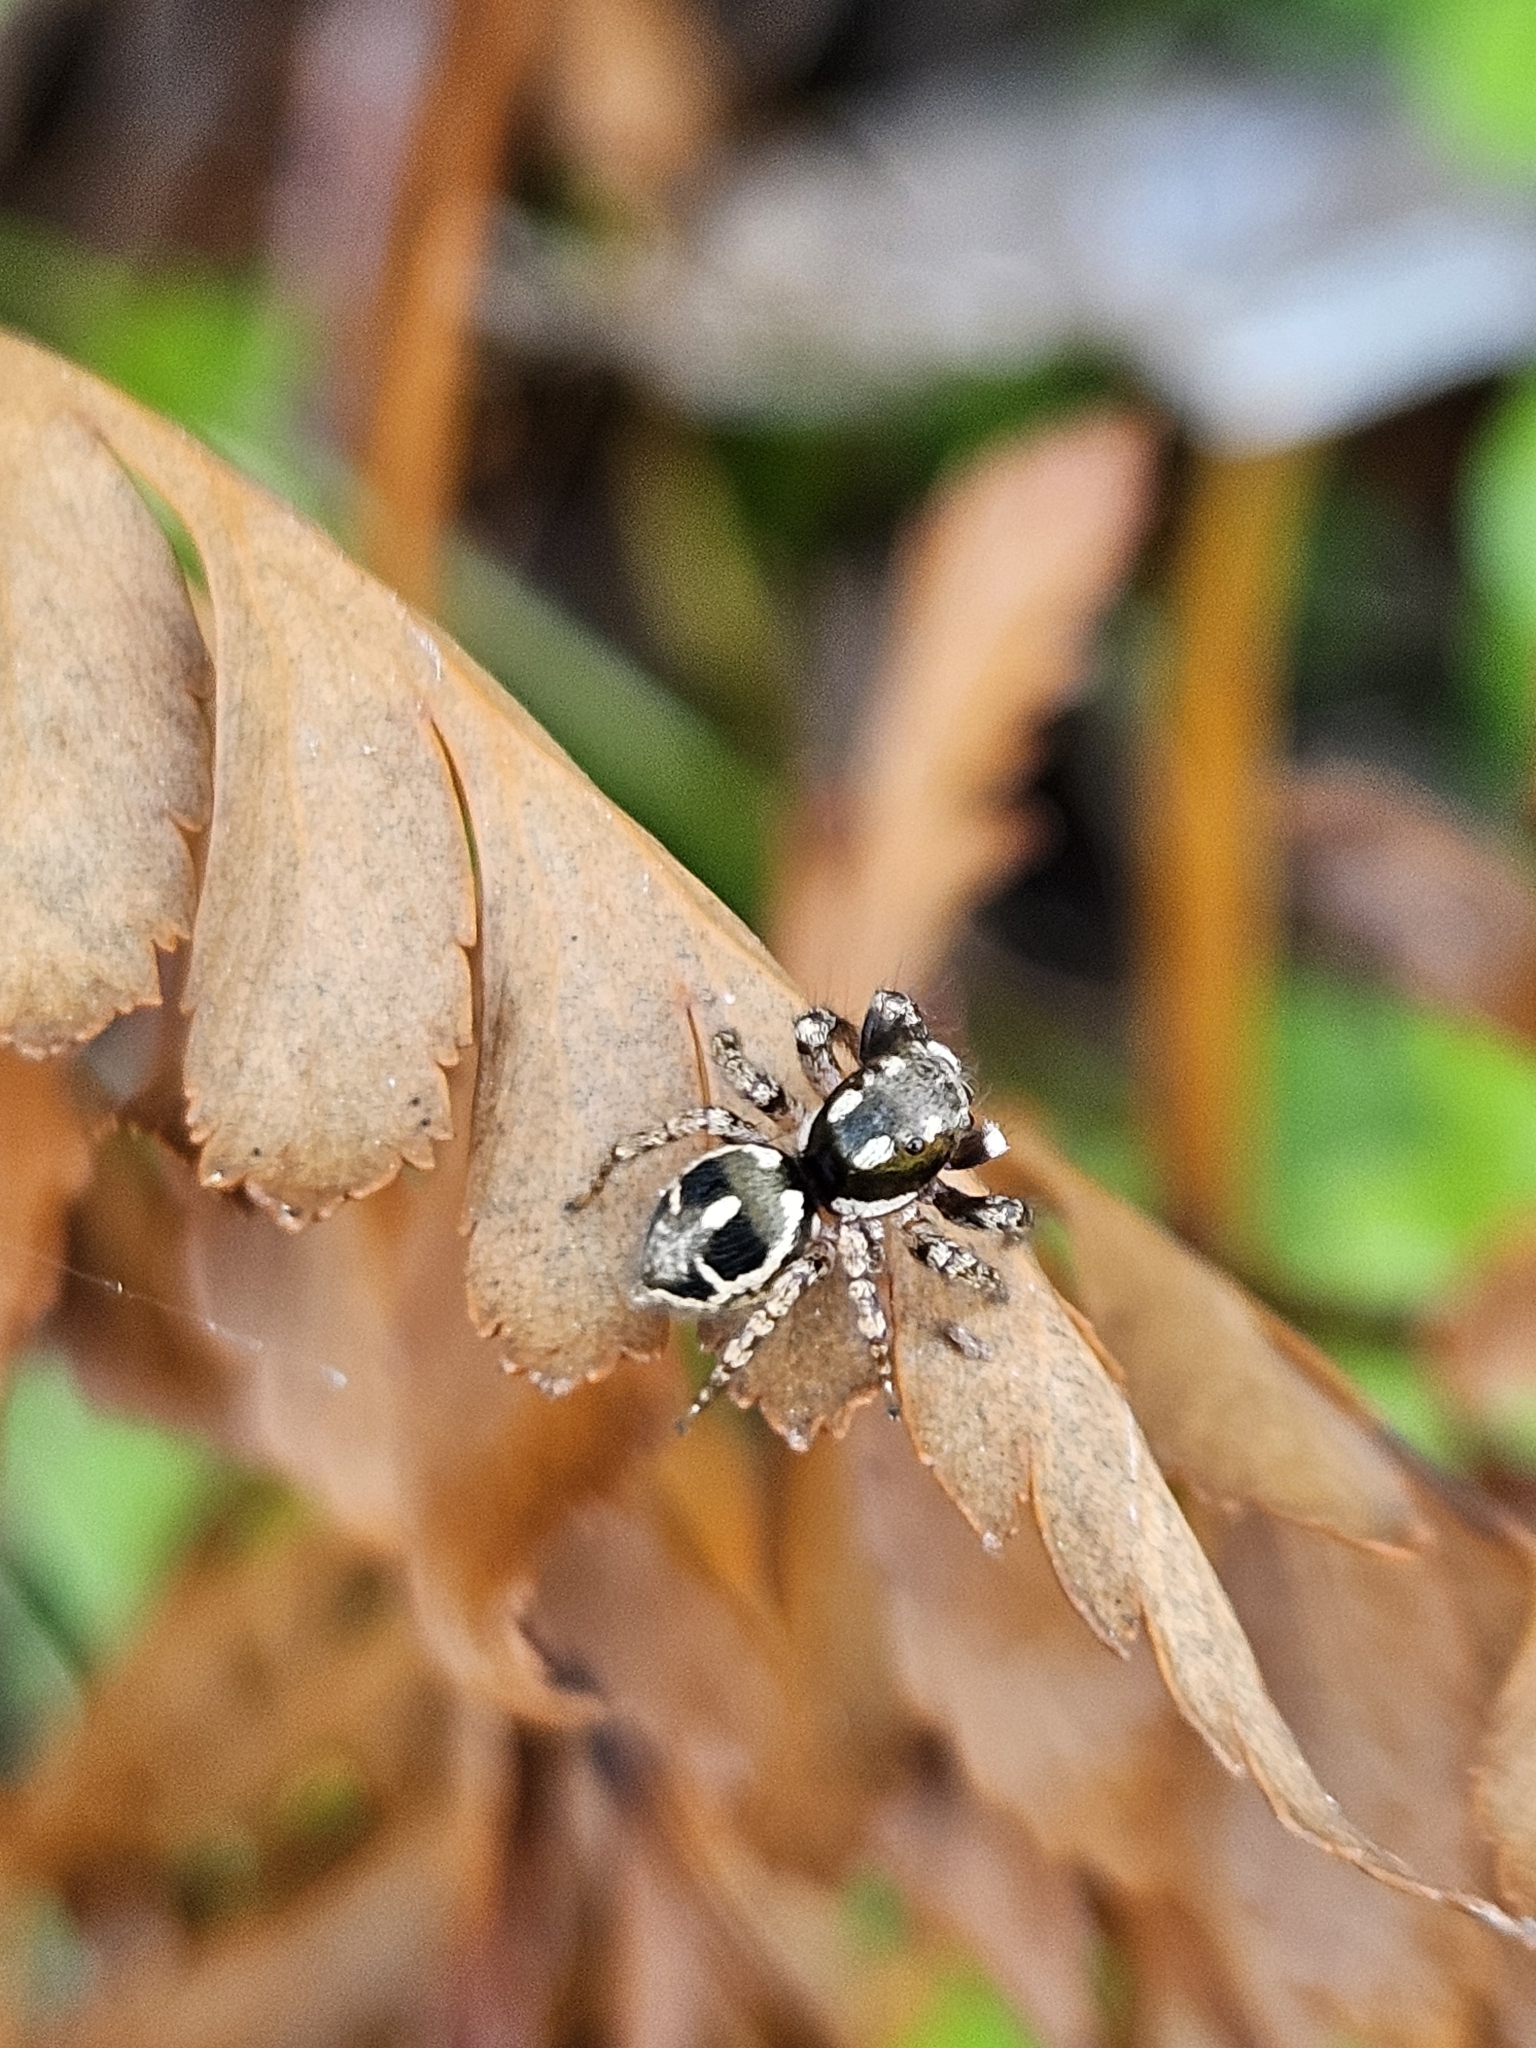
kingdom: Animalia
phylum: Arthropoda
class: Arachnida
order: Araneae
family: Salticidae
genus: Anasaitis
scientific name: Anasaitis canosa
